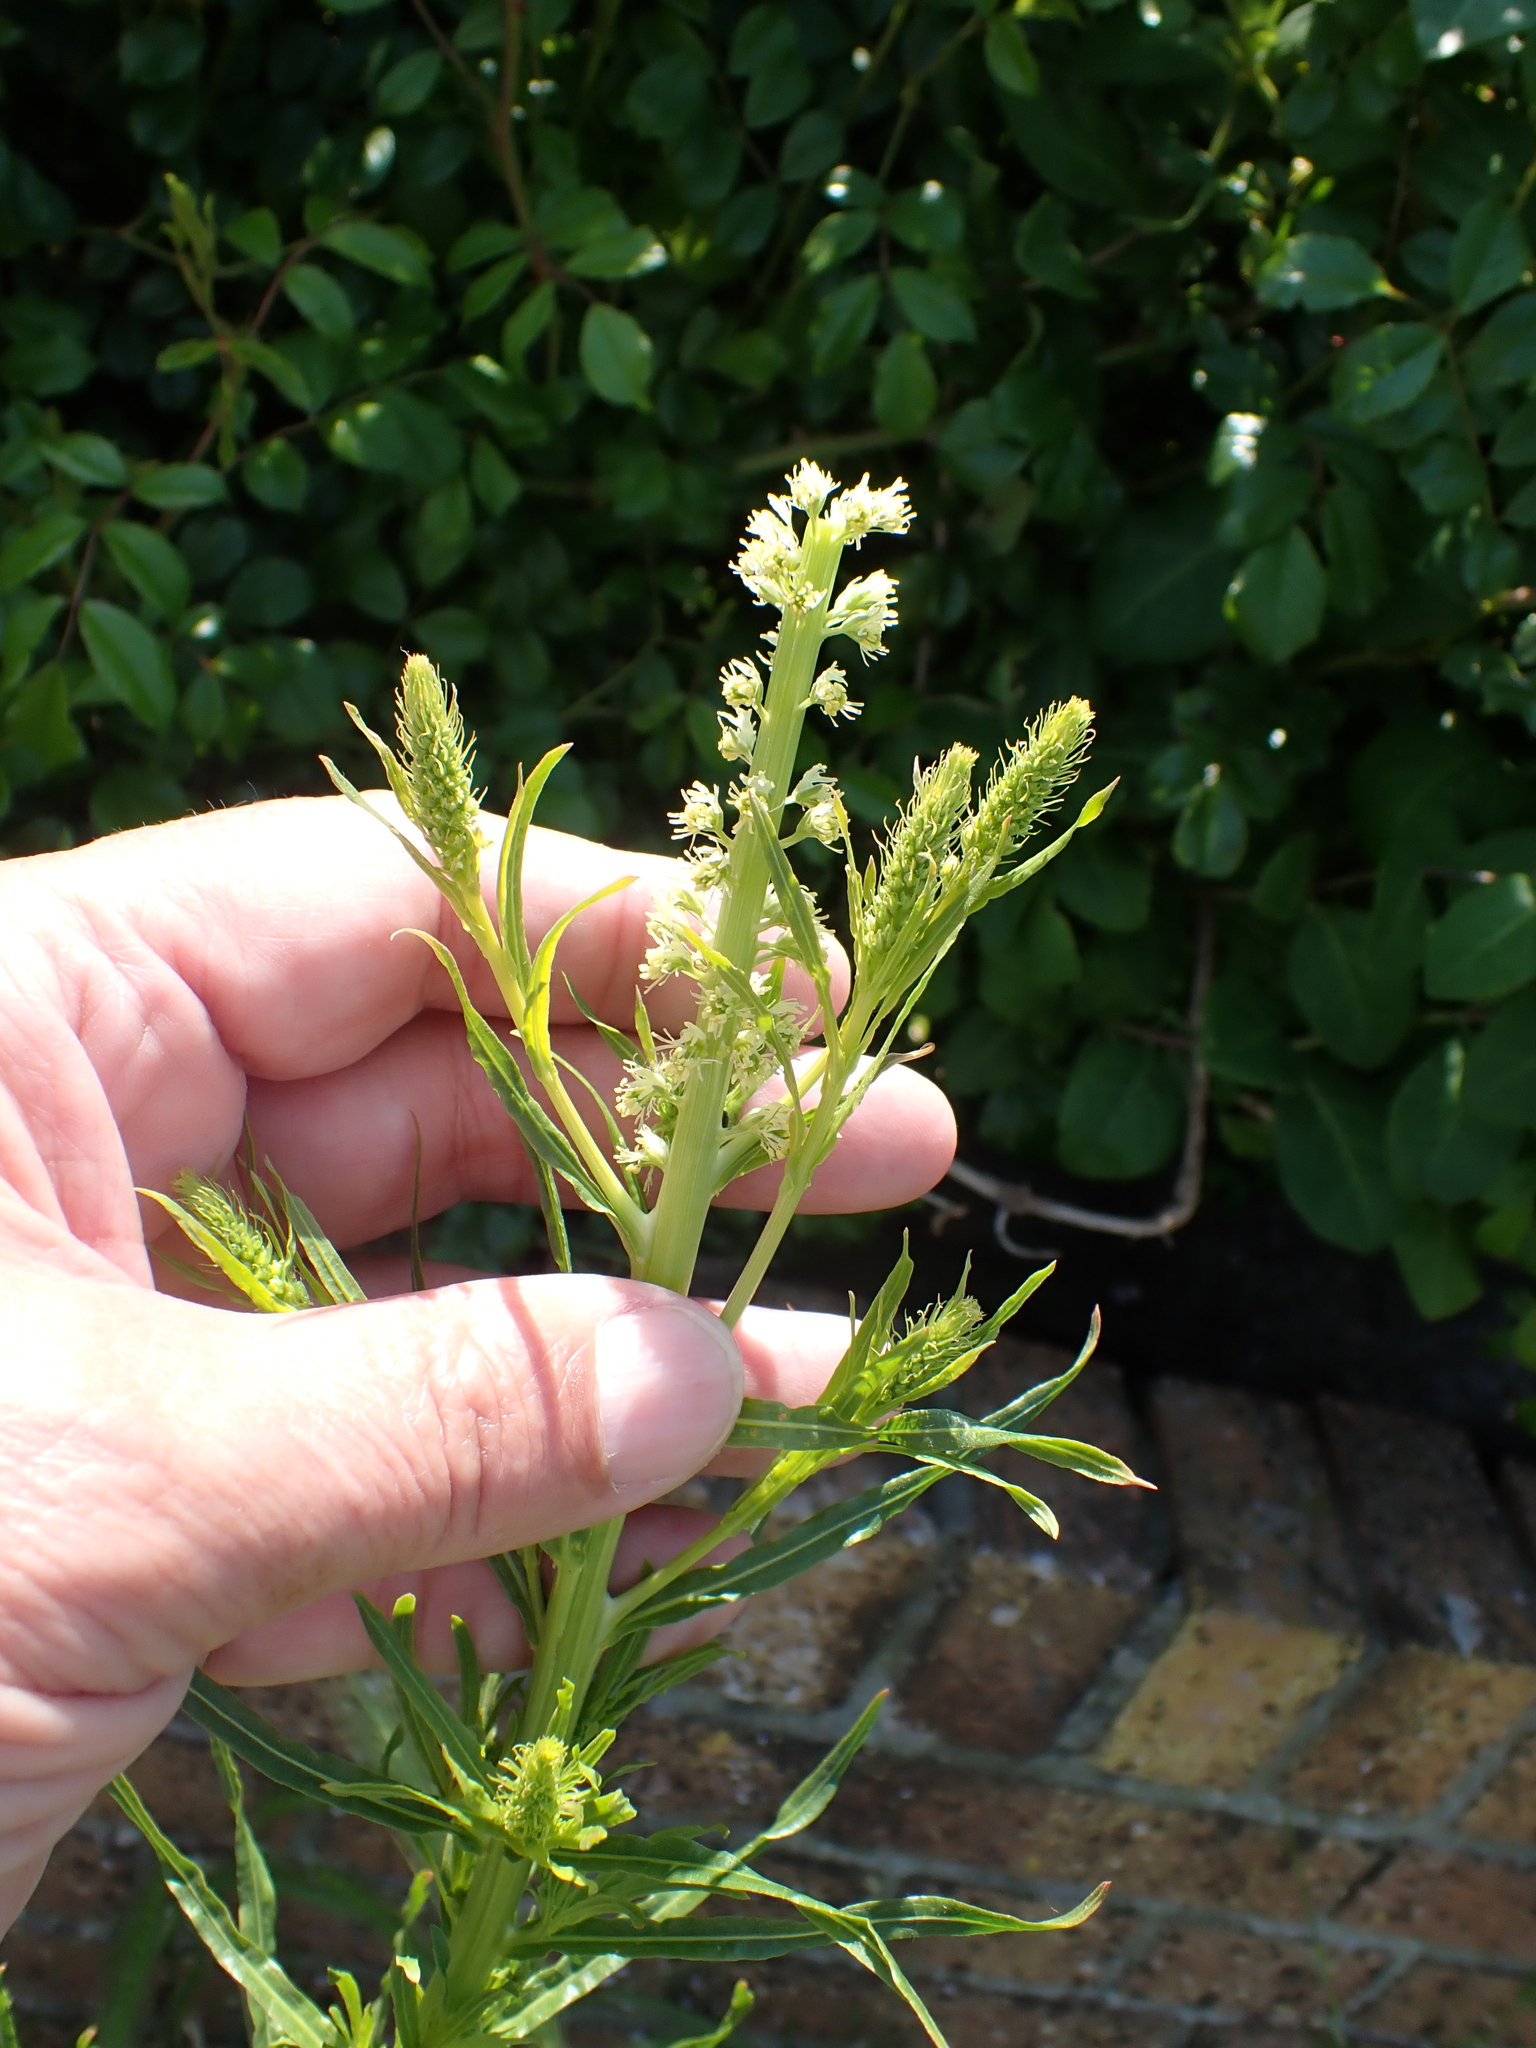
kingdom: Plantae
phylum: Tracheophyta
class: Magnoliopsida
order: Brassicales
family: Resedaceae
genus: Reseda
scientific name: Reseda luteola
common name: Weld
